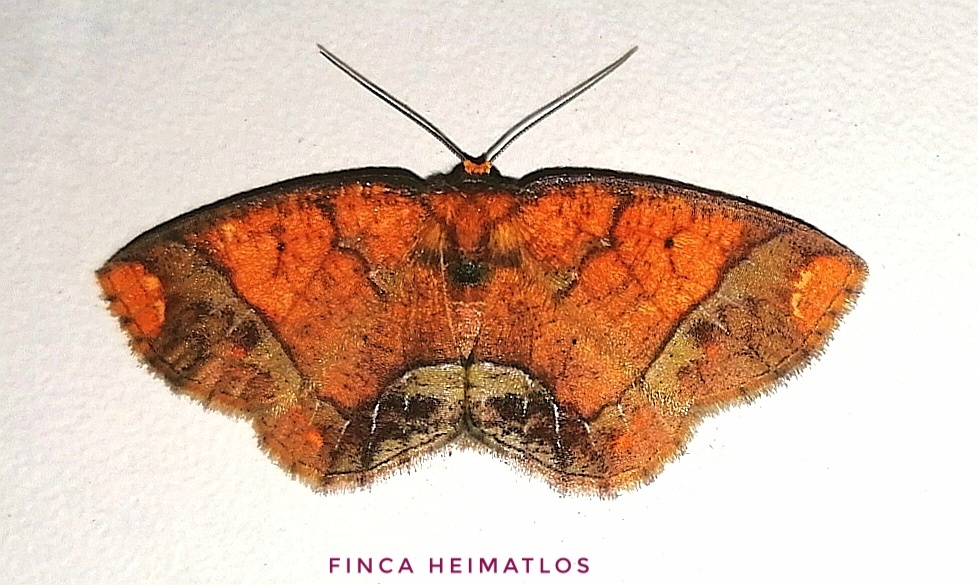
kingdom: Animalia
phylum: Arthropoda
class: Insecta
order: Lepidoptera
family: Geometridae
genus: Melinoides
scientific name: Melinoides detersaria
